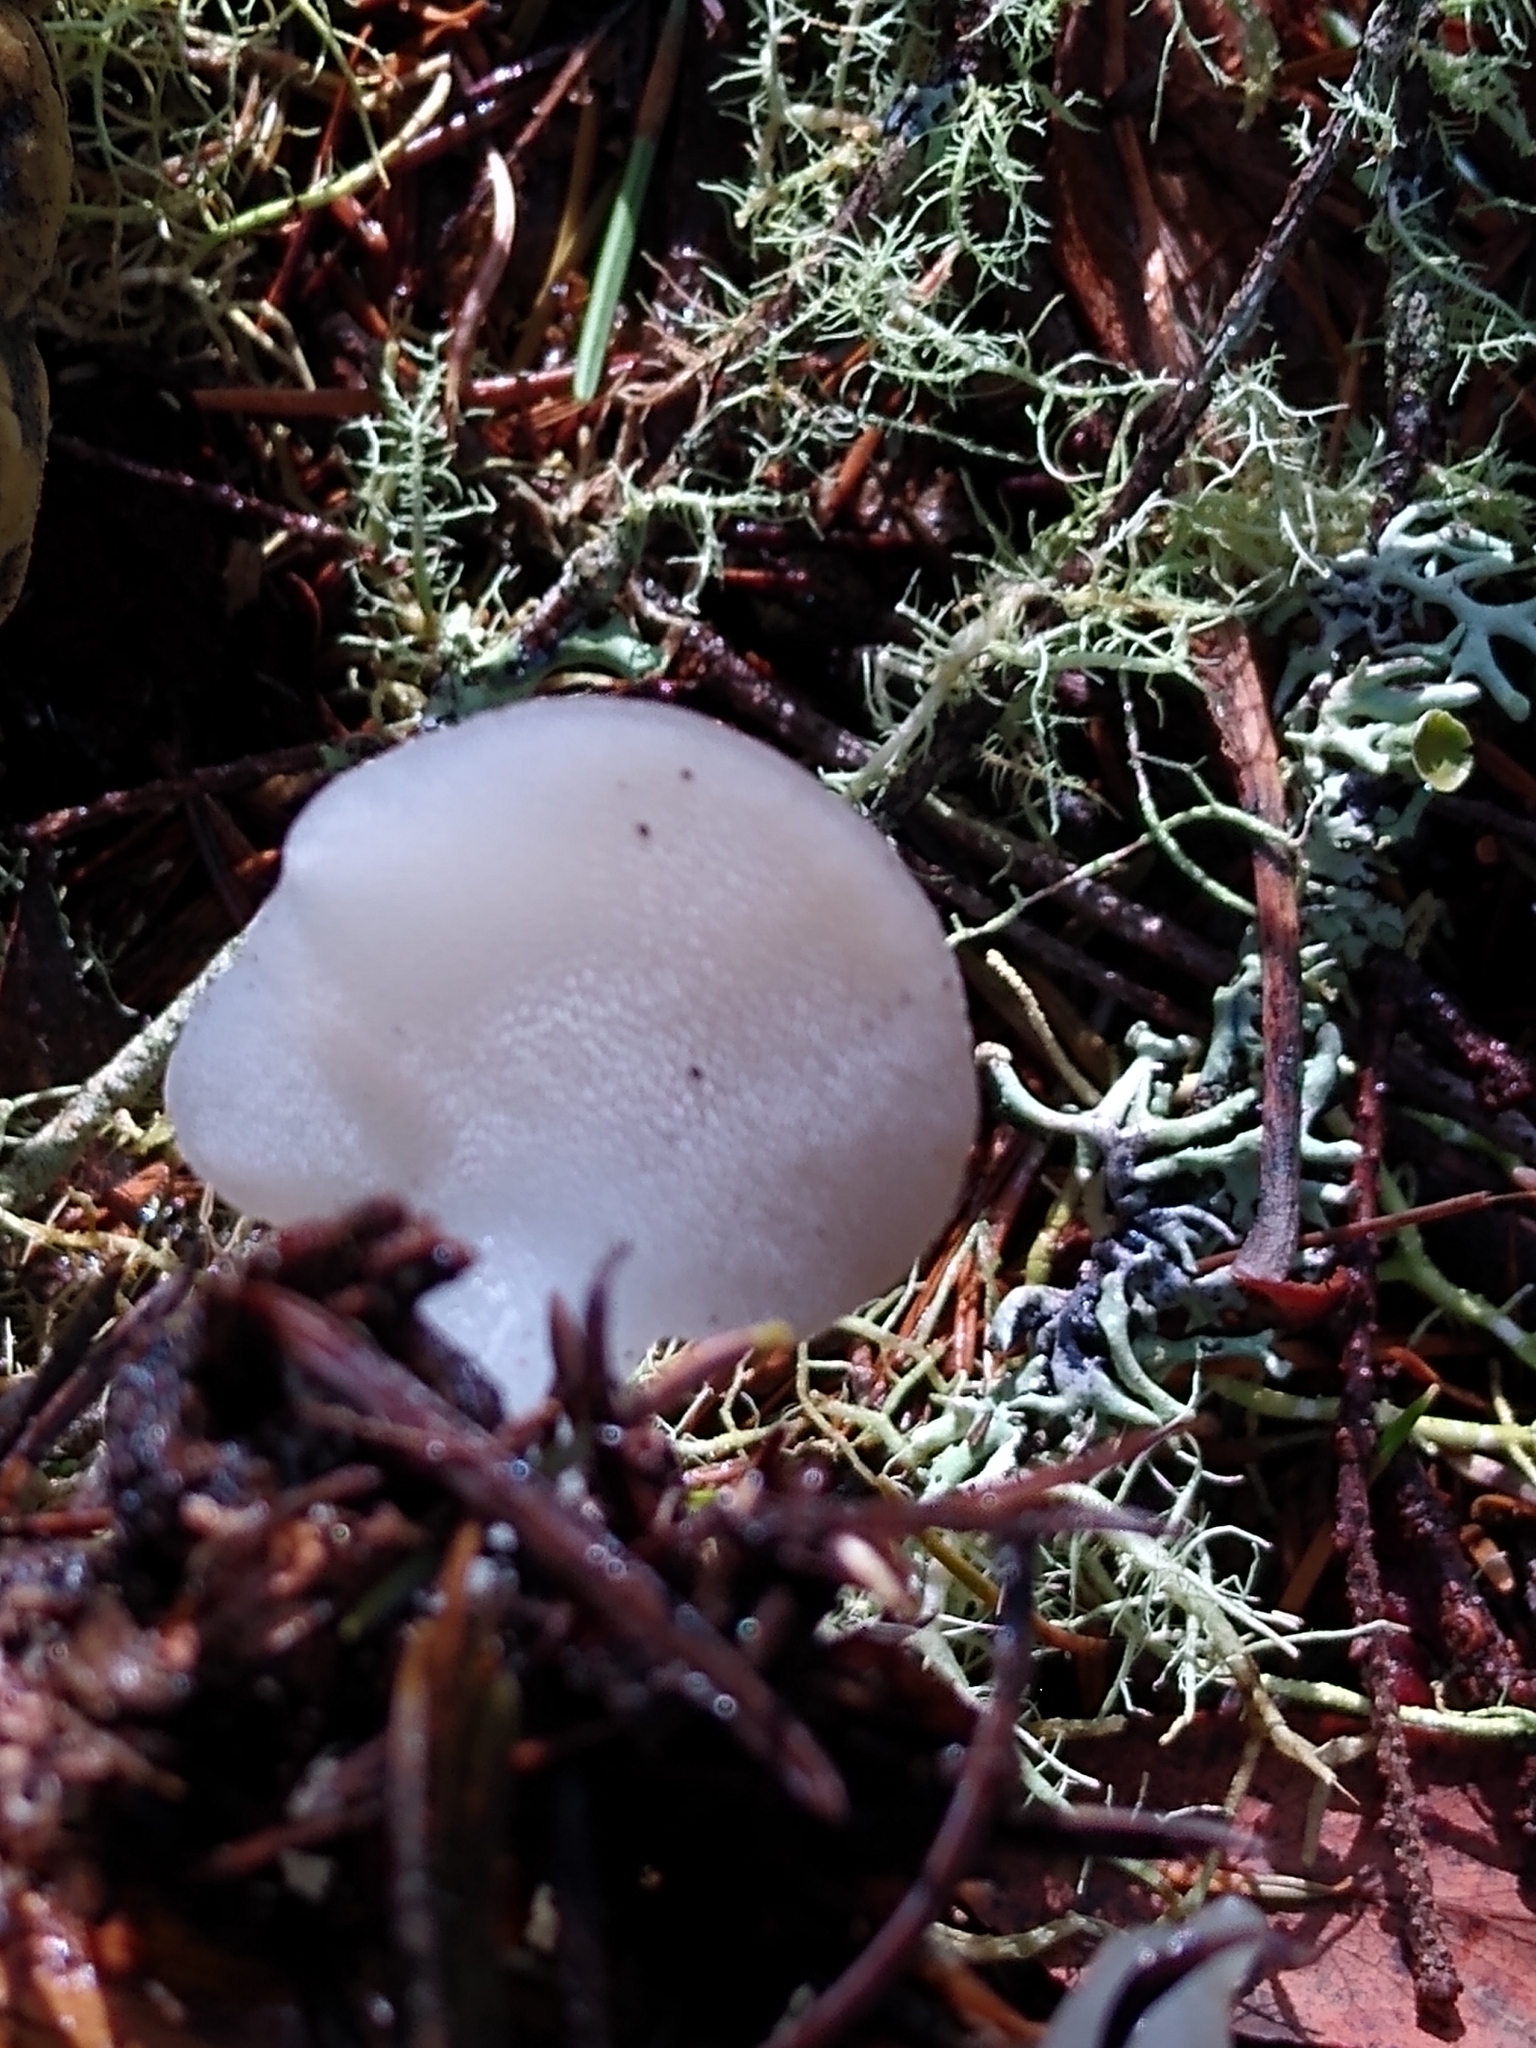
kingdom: Fungi
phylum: Basidiomycota
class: Agaricomycetes
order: Auriculariales
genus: Pseudohydnum
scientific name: Pseudohydnum gelatinosum
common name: Jelly tongue
